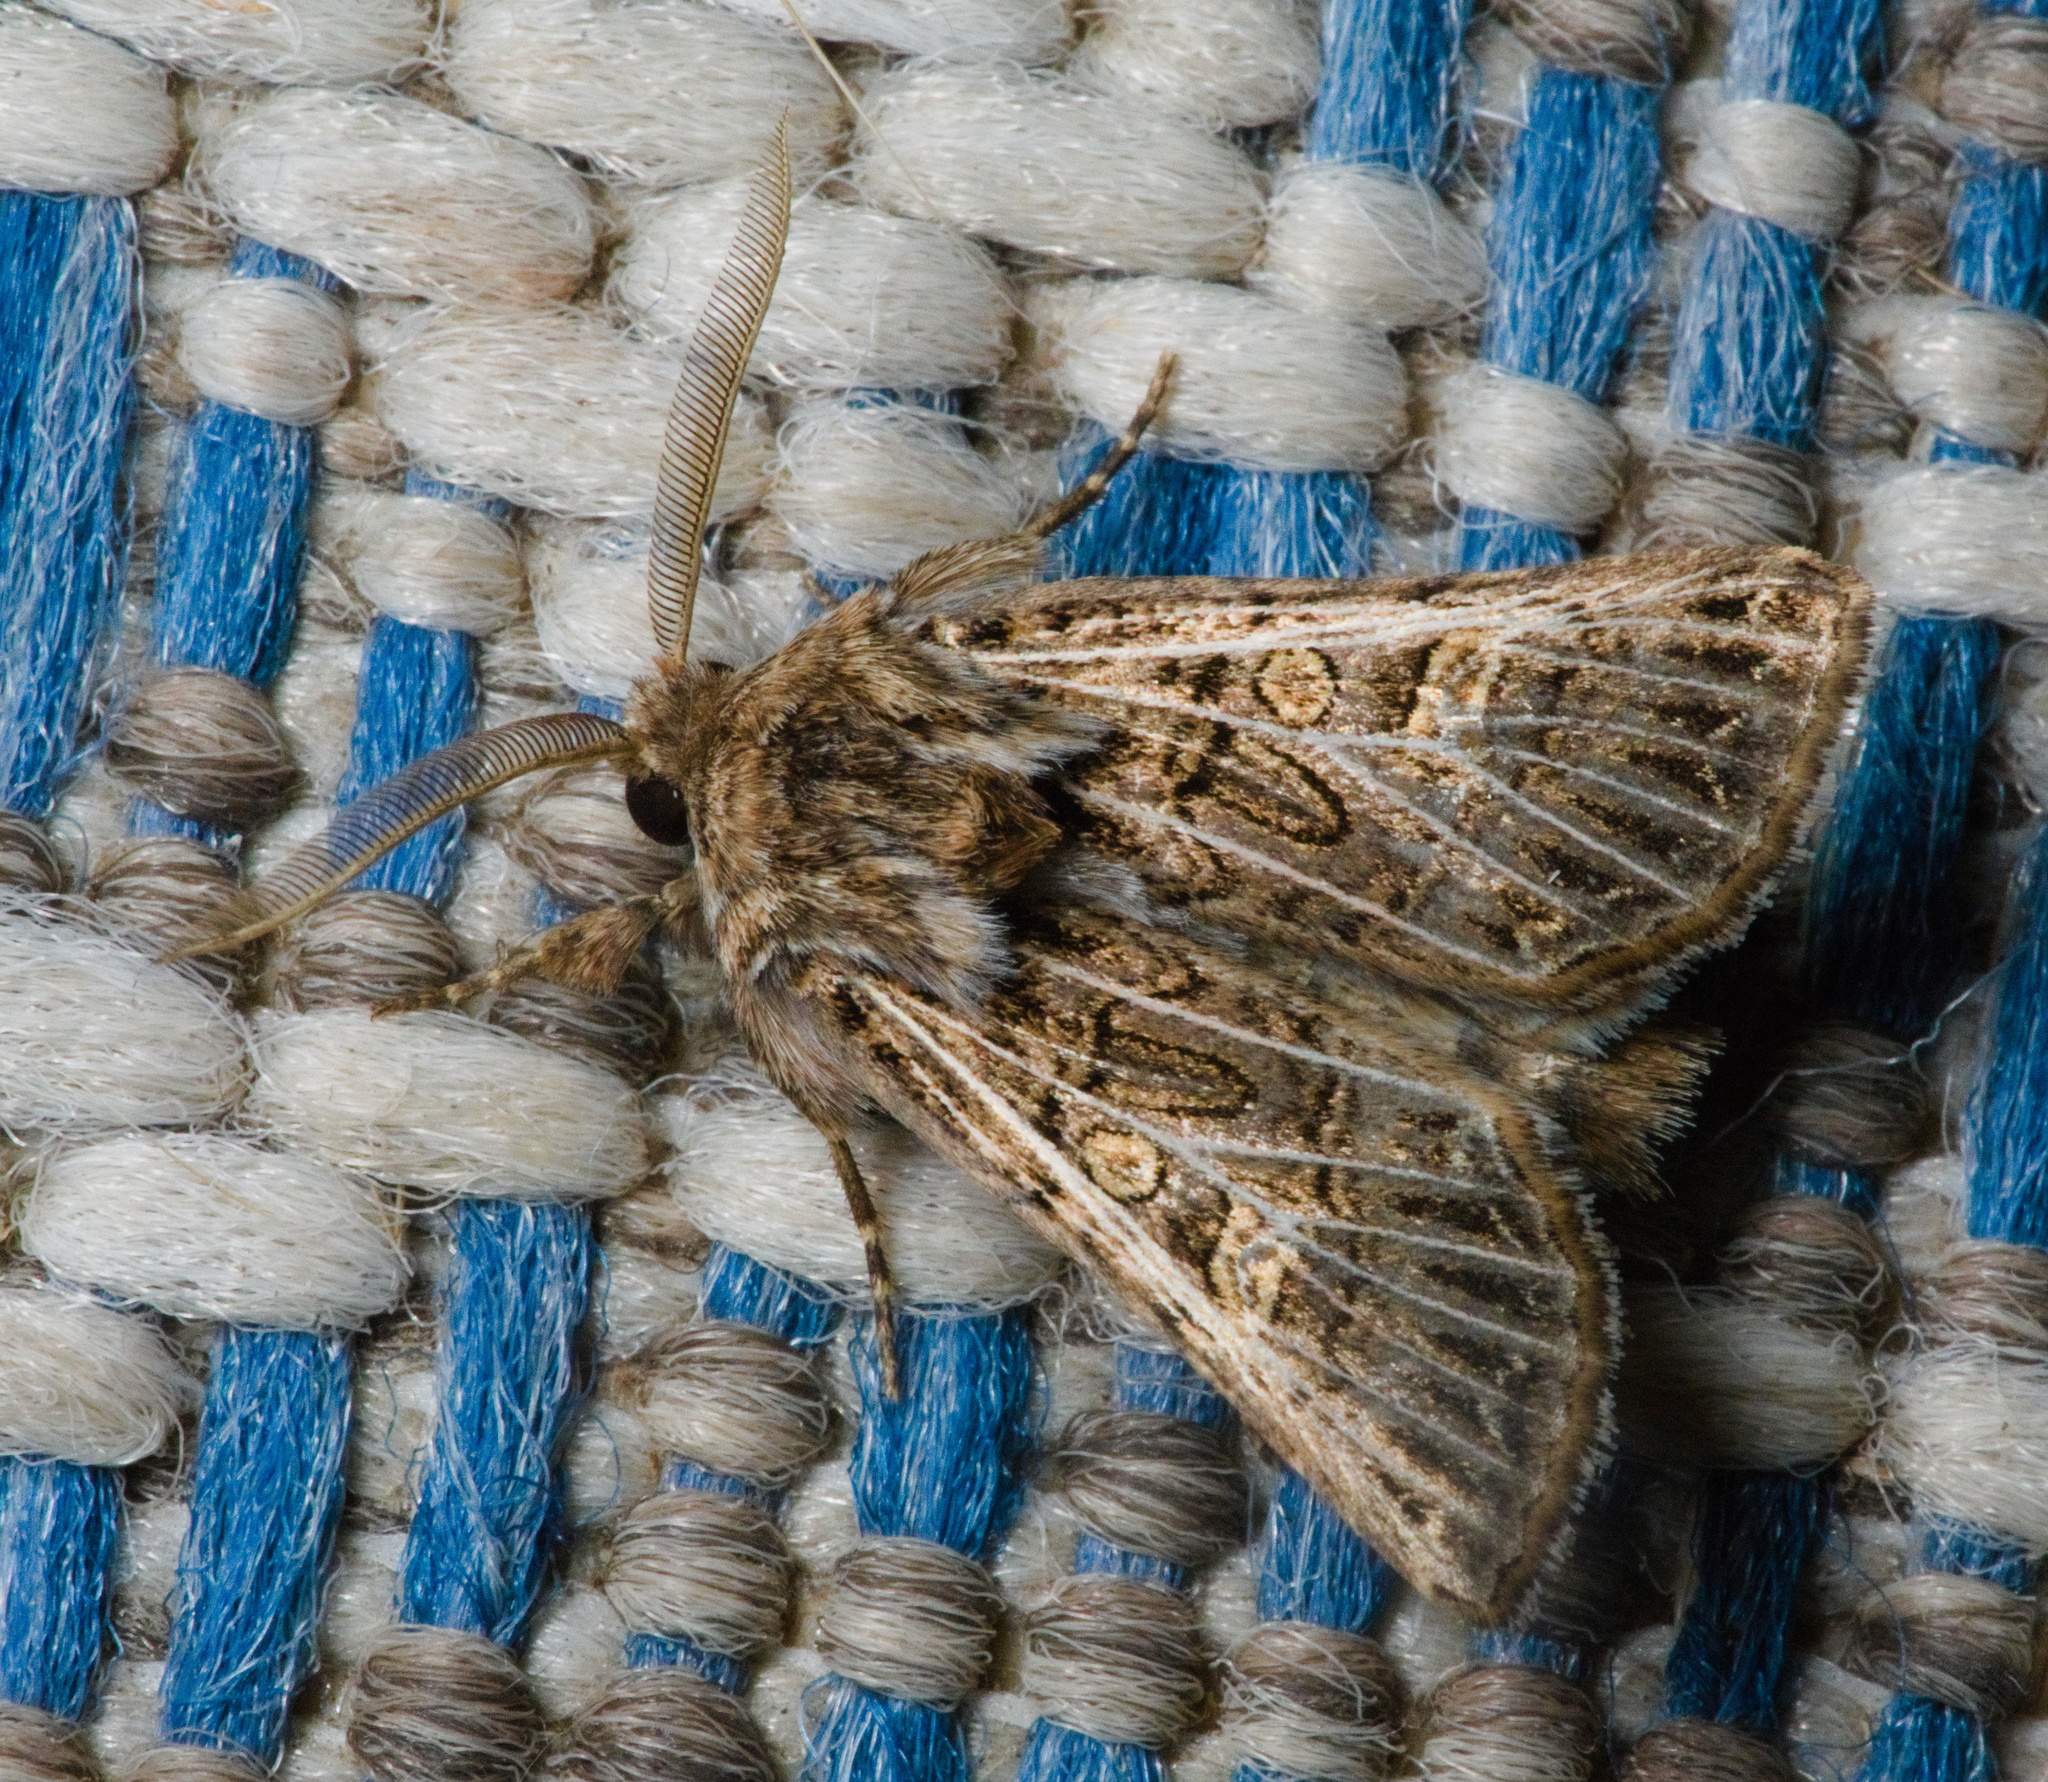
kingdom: Animalia
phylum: Arthropoda
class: Insecta
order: Lepidoptera
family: Noctuidae
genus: Tholera
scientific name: Tholera decimalis
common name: Feathered gothic
